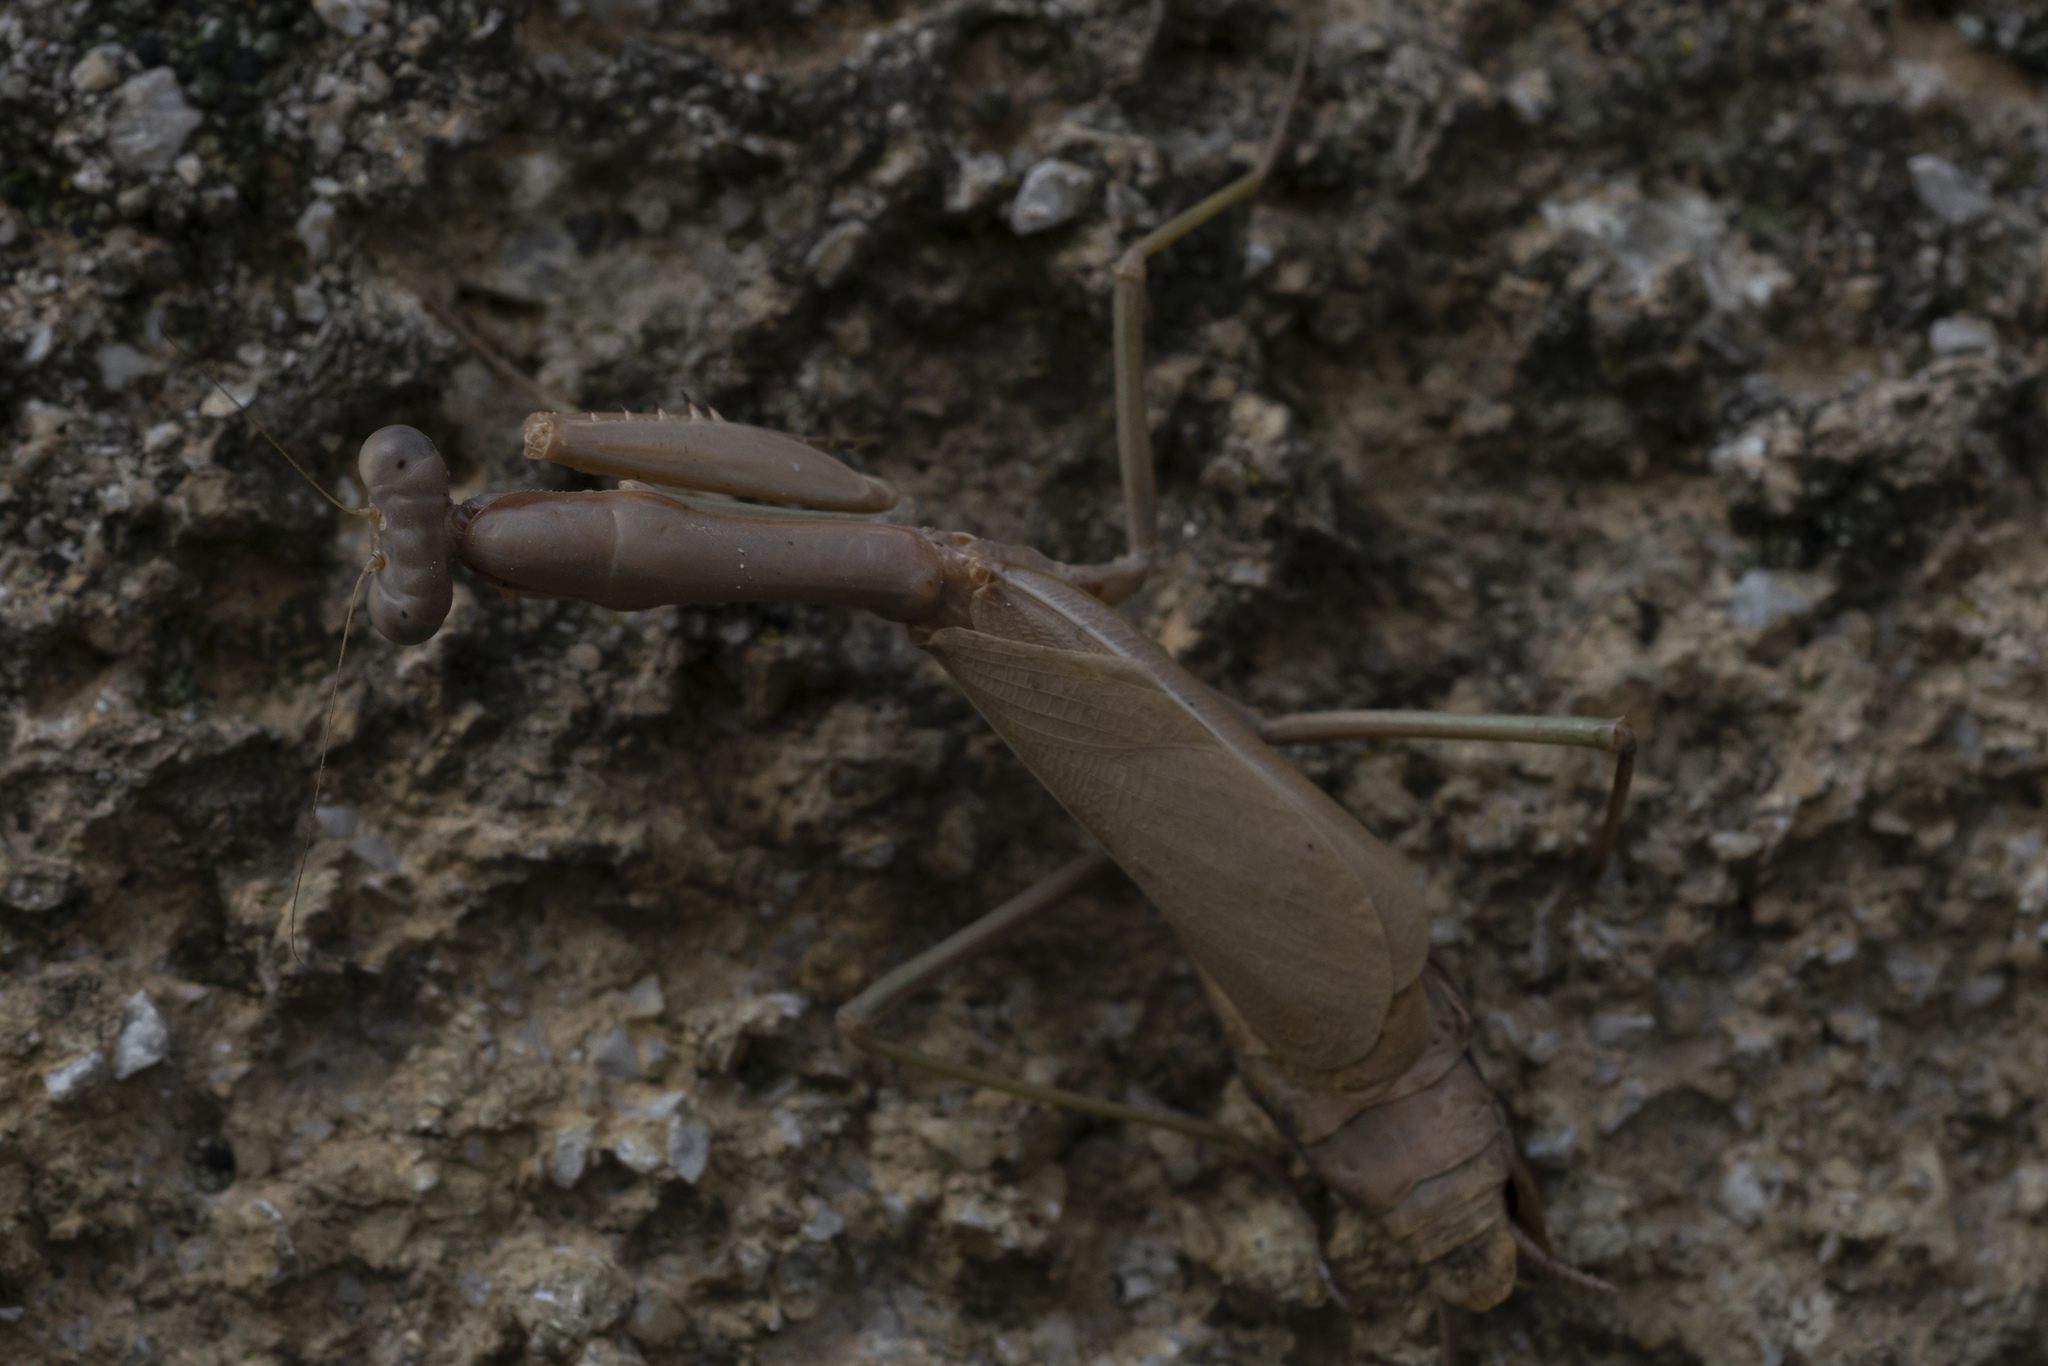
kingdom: Animalia
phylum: Arthropoda
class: Insecta
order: Mantodea
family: Eremiaphilidae
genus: Iris
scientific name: Iris oratoria
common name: Mediterranean mantis
